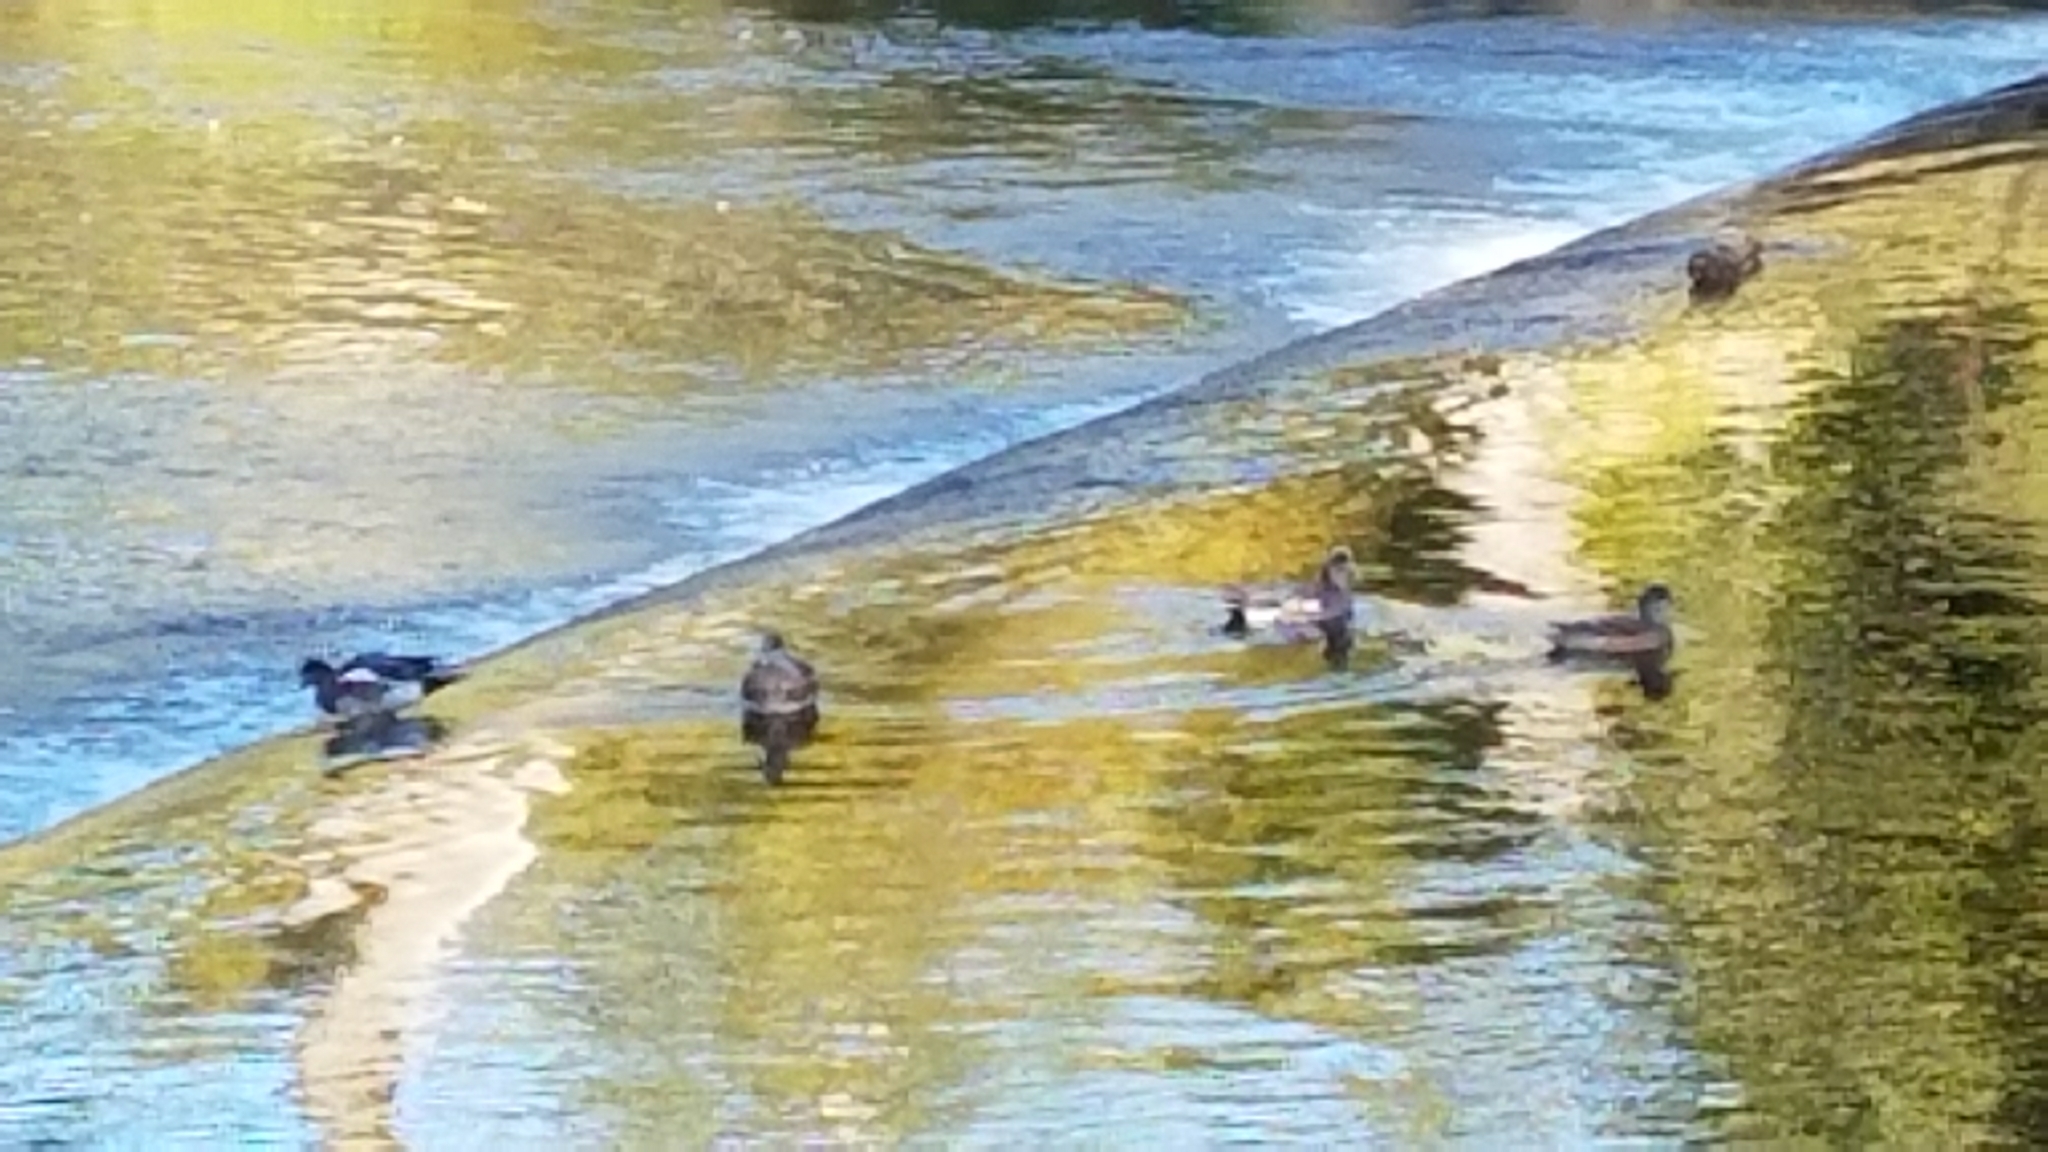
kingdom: Animalia
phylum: Chordata
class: Aves
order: Anseriformes
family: Anatidae
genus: Mareca
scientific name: Mareca americana
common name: American wigeon
